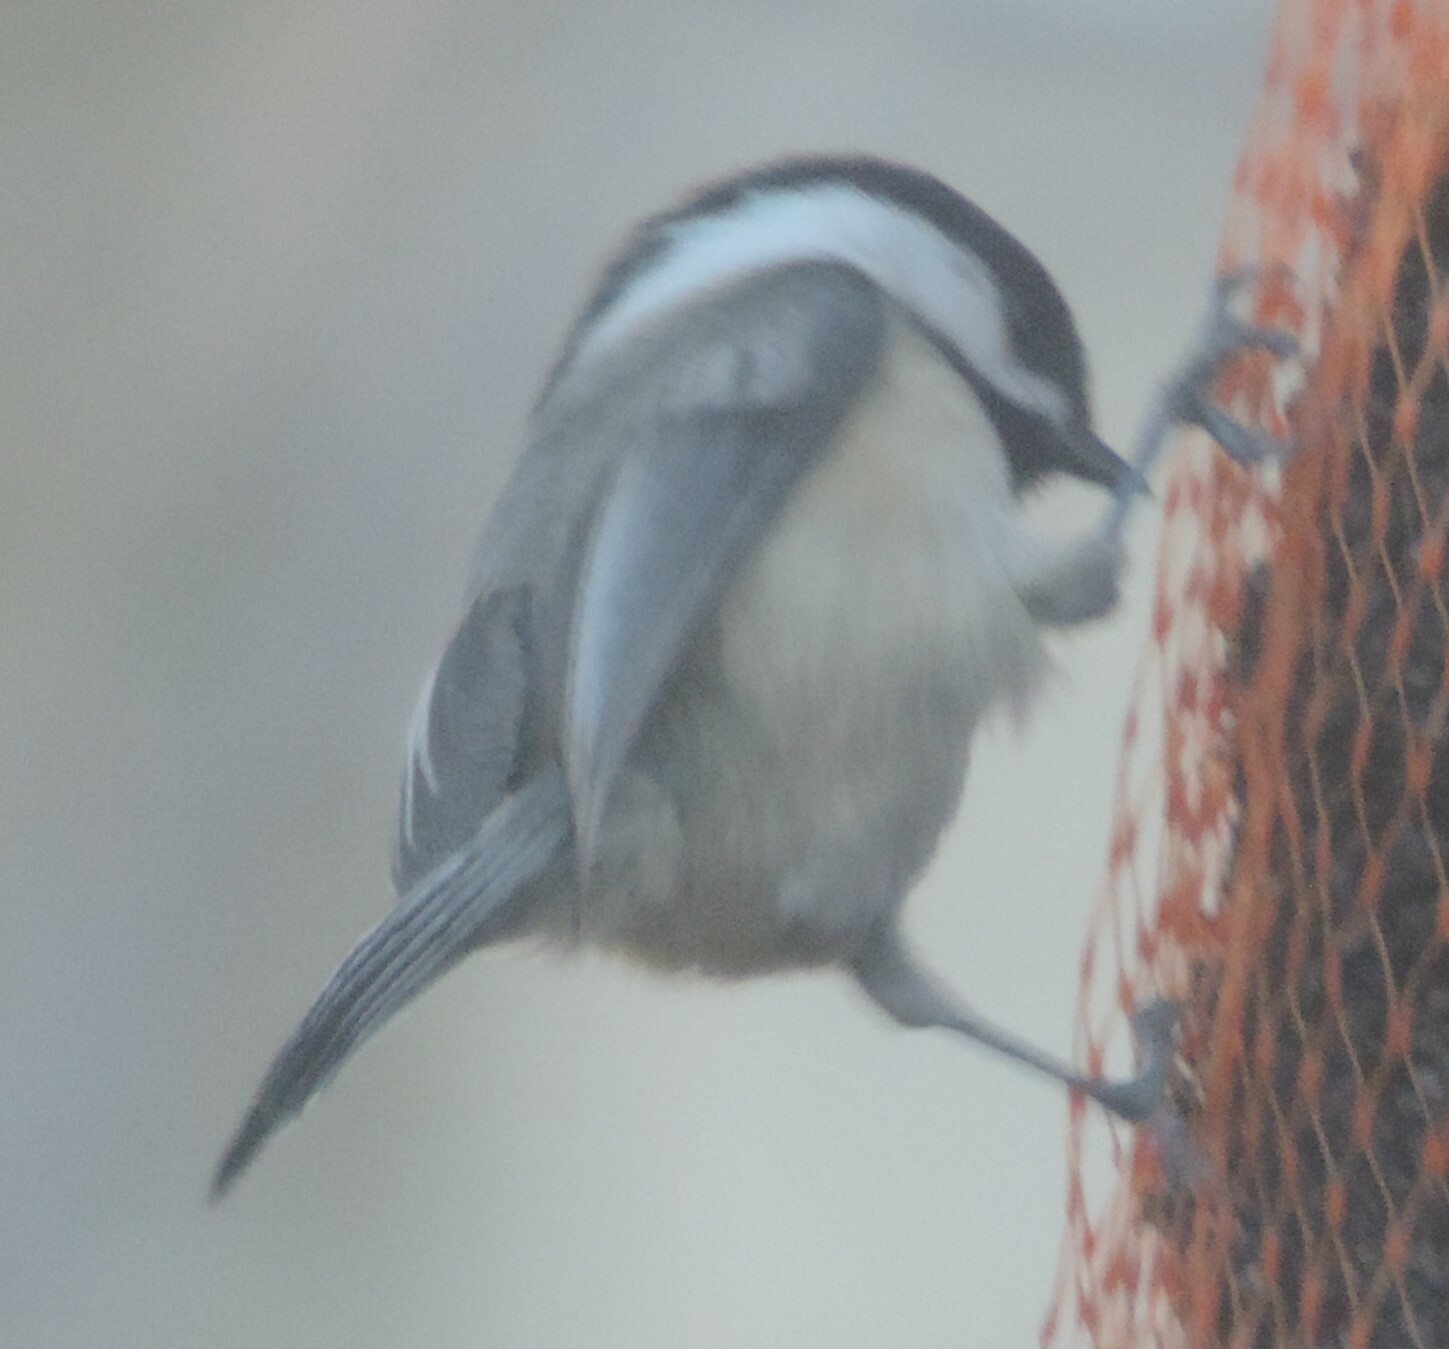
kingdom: Animalia
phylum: Chordata
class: Aves
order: Passeriformes
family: Paridae
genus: Poecile
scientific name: Poecile atricapillus
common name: Black-capped chickadee
